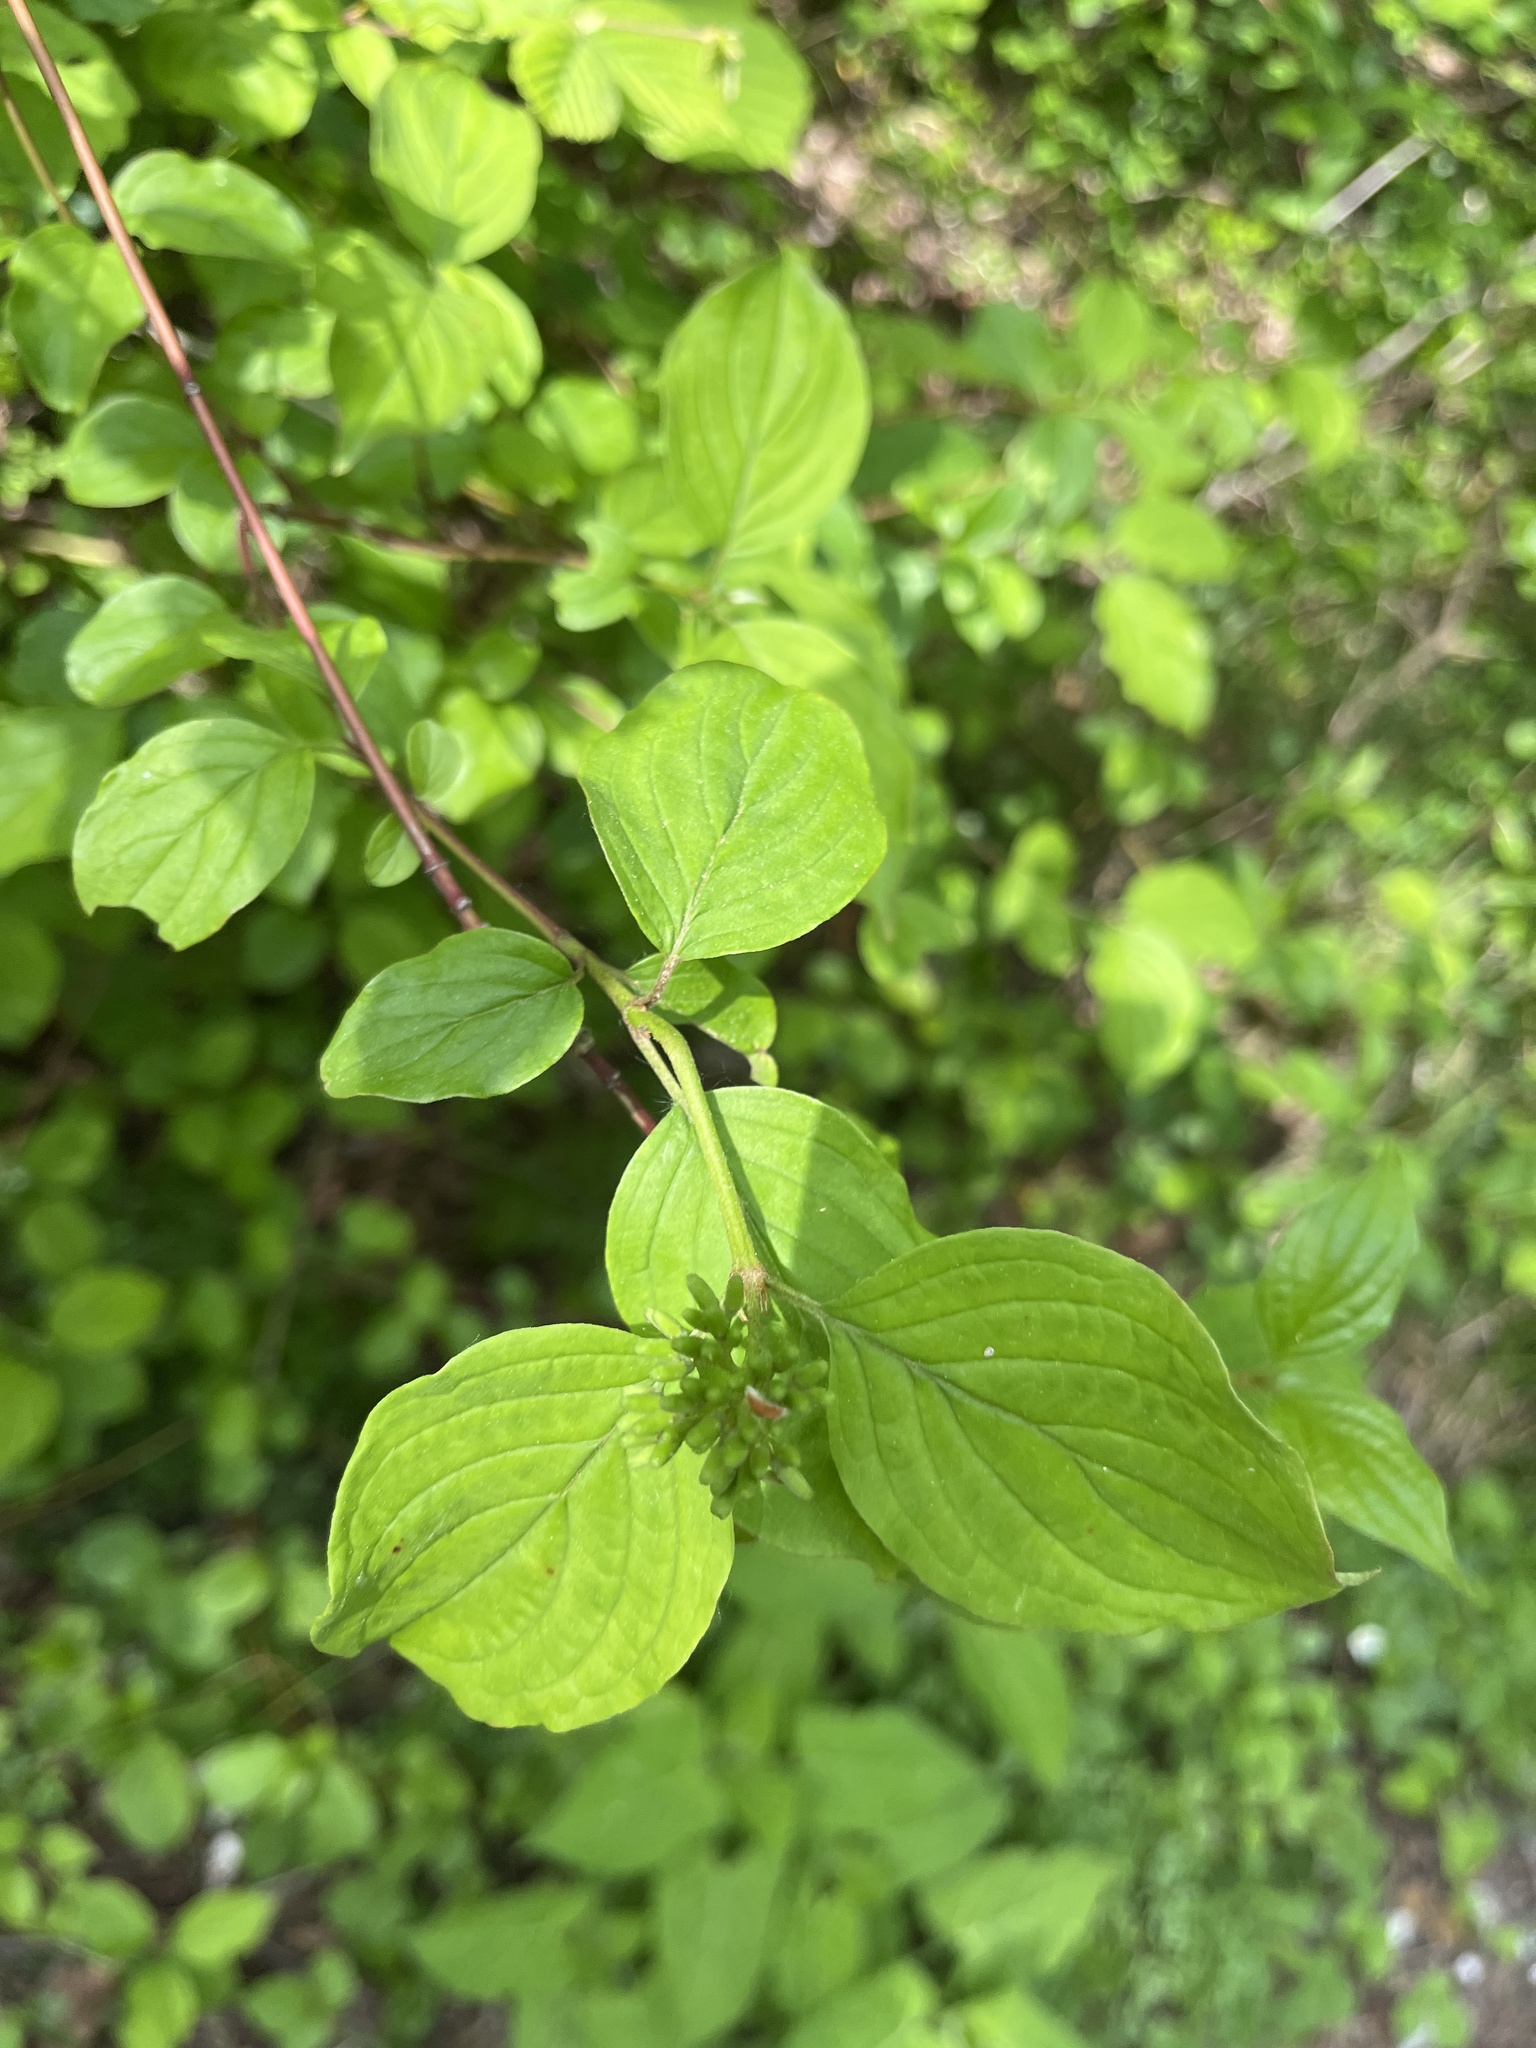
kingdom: Plantae
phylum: Tracheophyta
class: Magnoliopsida
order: Cornales
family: Cornaceae
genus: Cornus
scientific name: Cornus sanguinea
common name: Dogwood
